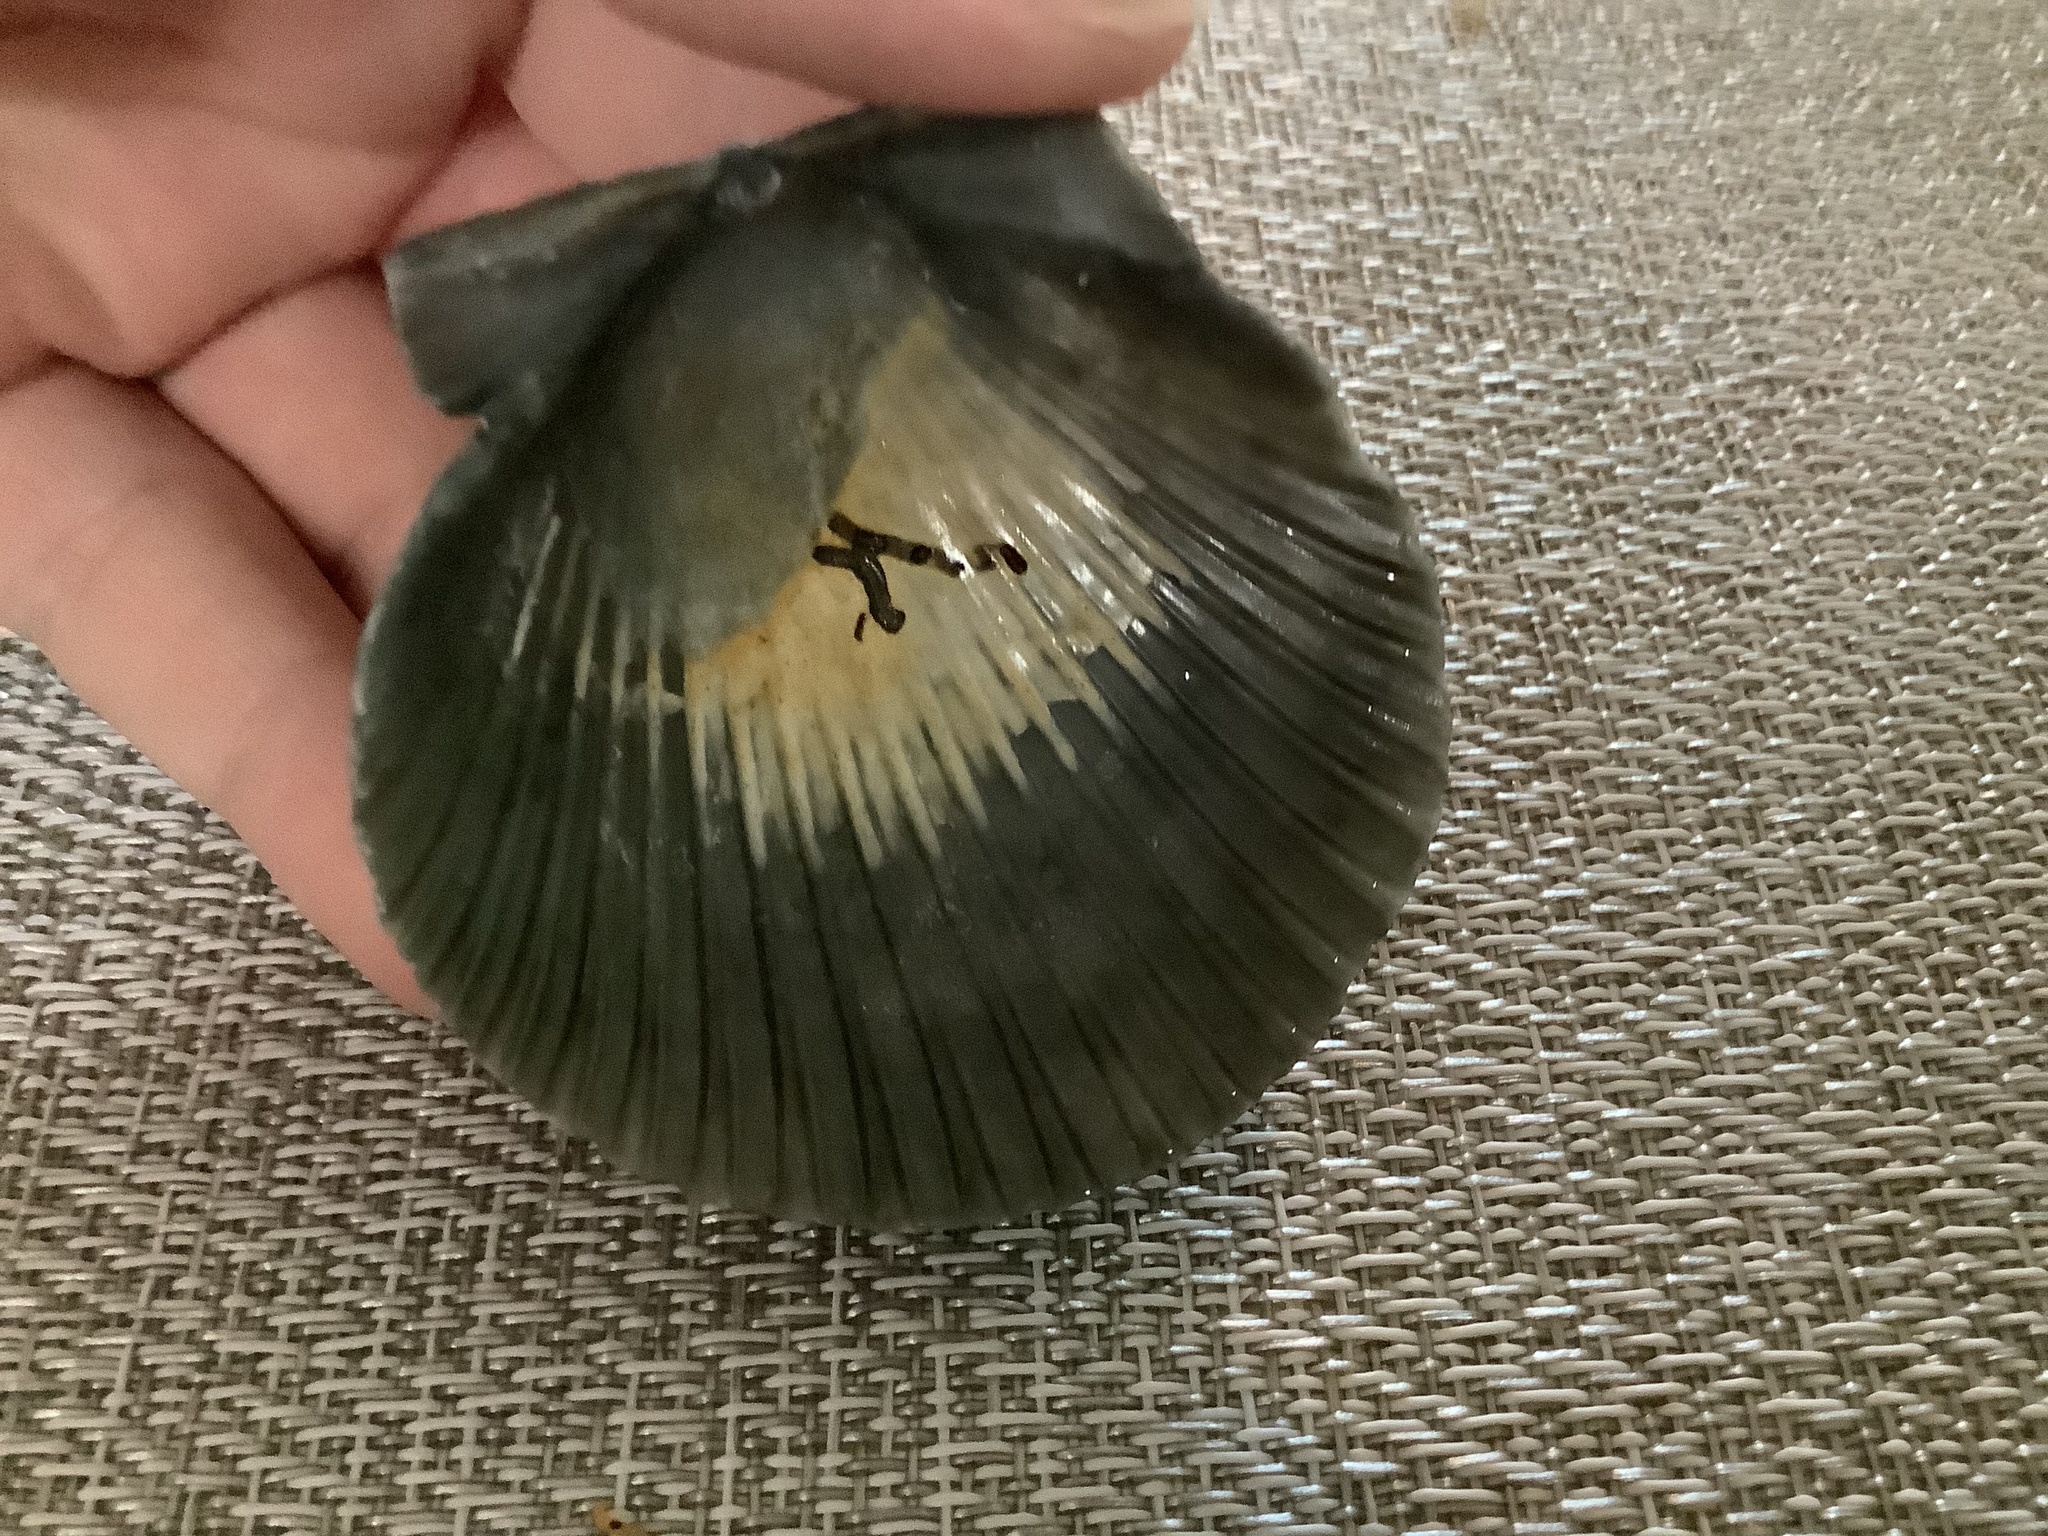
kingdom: Animalia
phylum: Mollusca
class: Bivalvia
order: Pectinida
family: Pectinidae
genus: Argopecten
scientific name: Argopecten irradians
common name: Atlantic bay scallop
